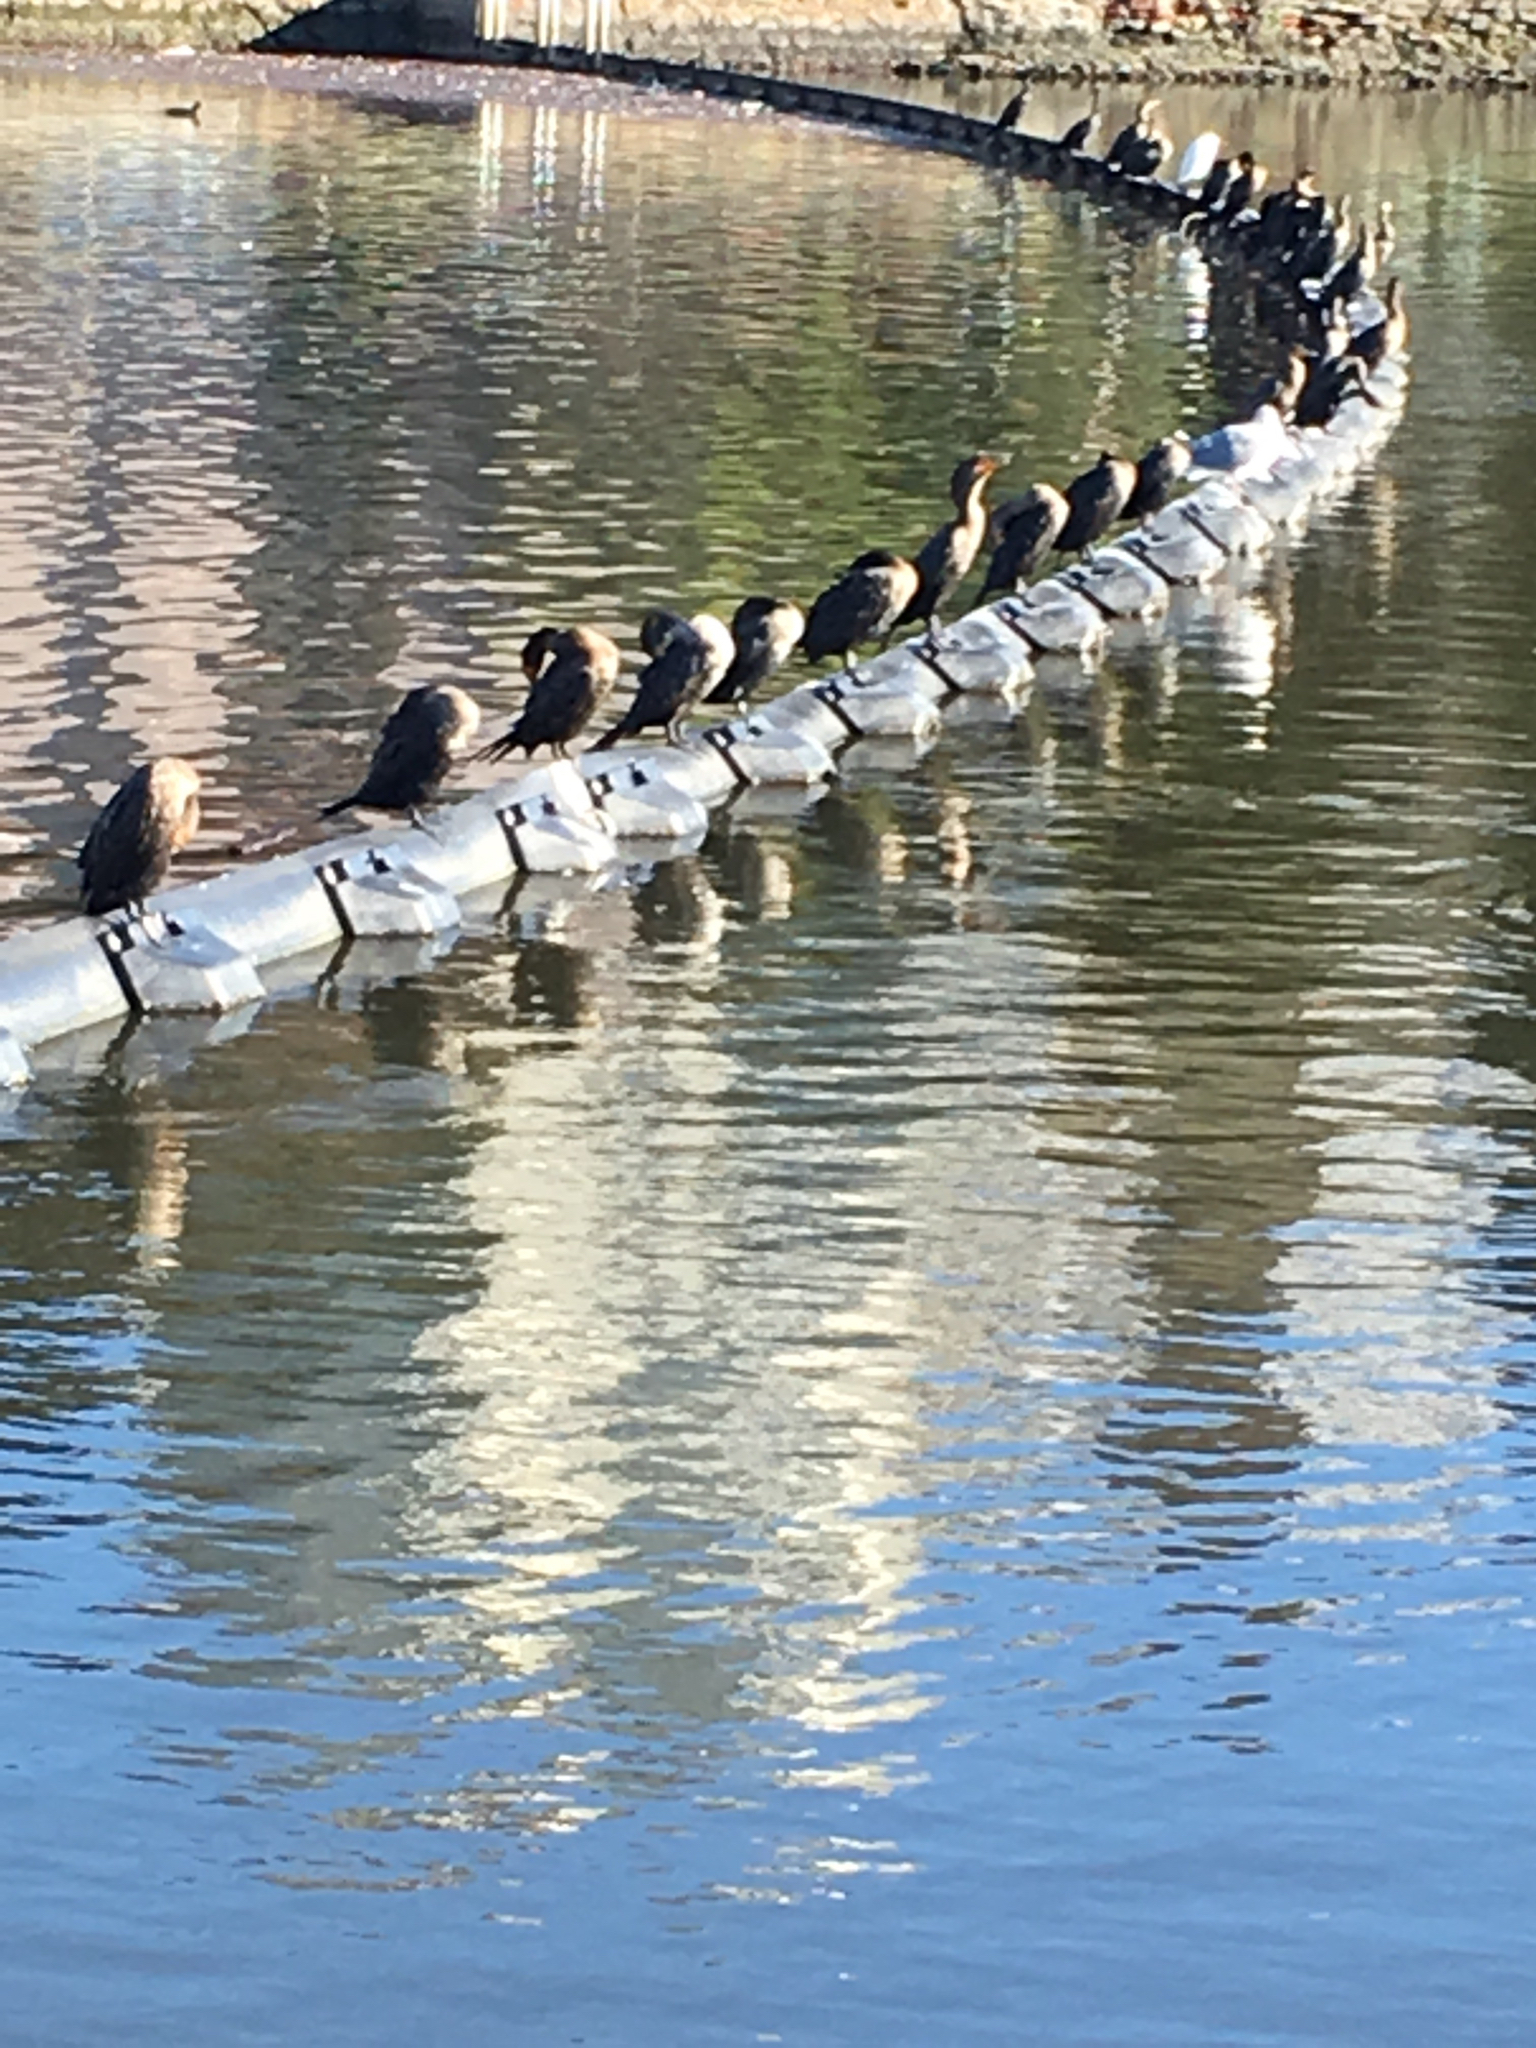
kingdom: Animalia
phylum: Chordata
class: Aves
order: Suliformes
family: Phalacrocoracidae
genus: Phalacrocorax
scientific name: Phalacrocorax auritus
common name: Double-crested cormorant
